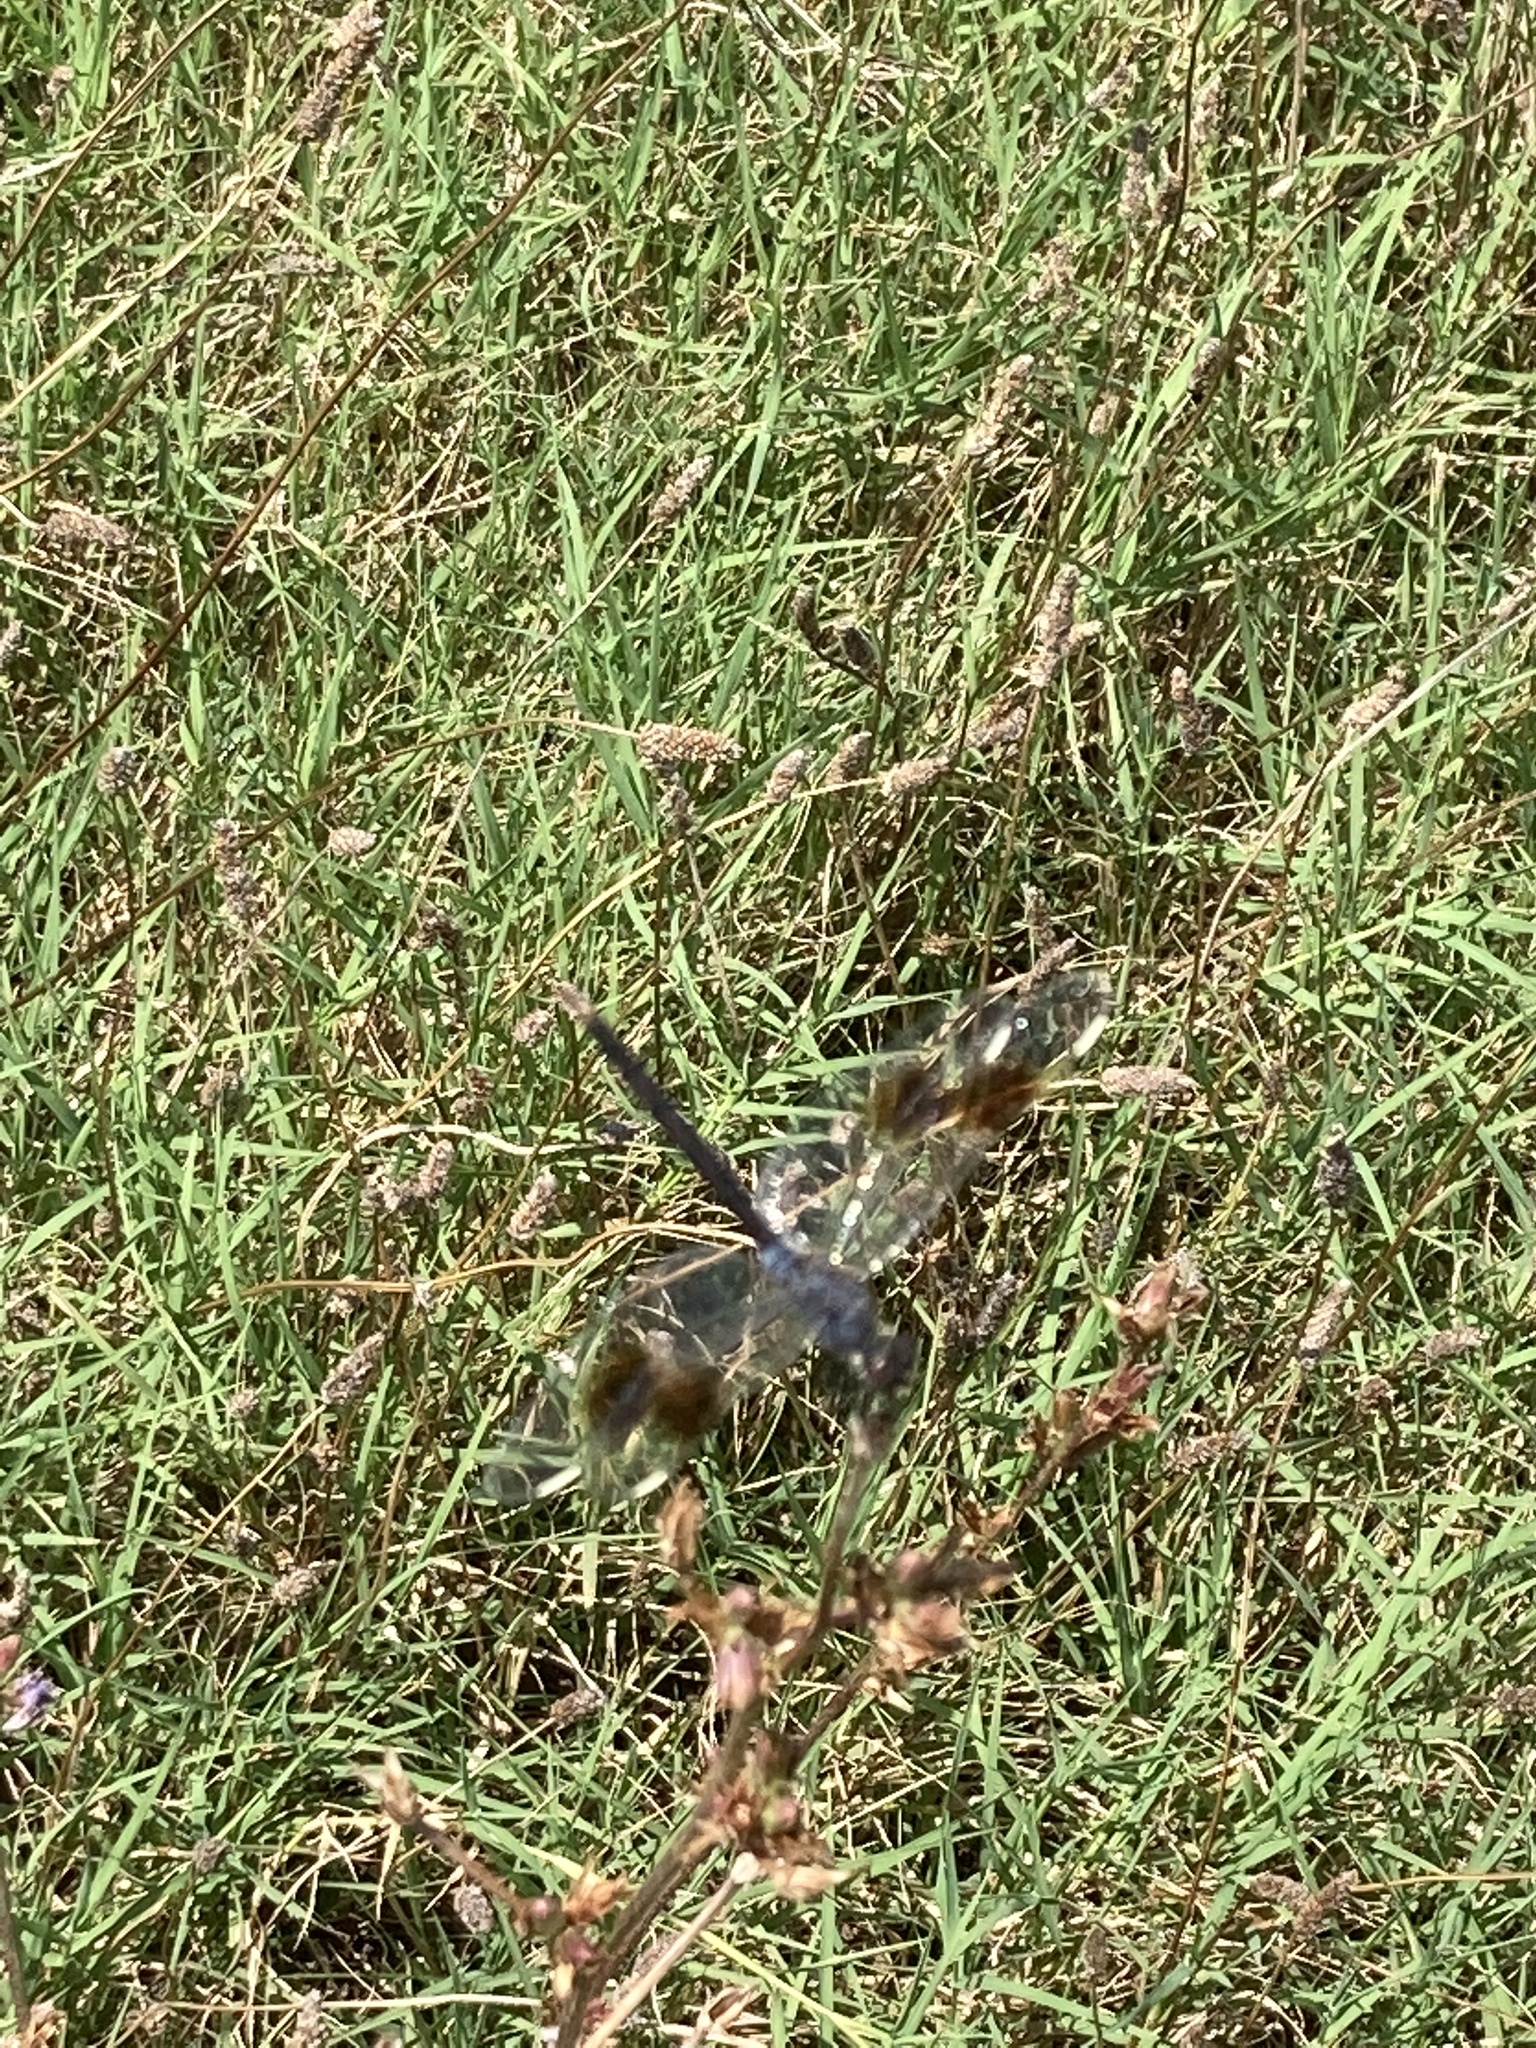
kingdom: Animalia
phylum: Arthropoda
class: Insecta
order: Odonata
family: Libellulidae
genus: Brachymesia
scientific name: Brachymesia gravida
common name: Four-spotted pennant
